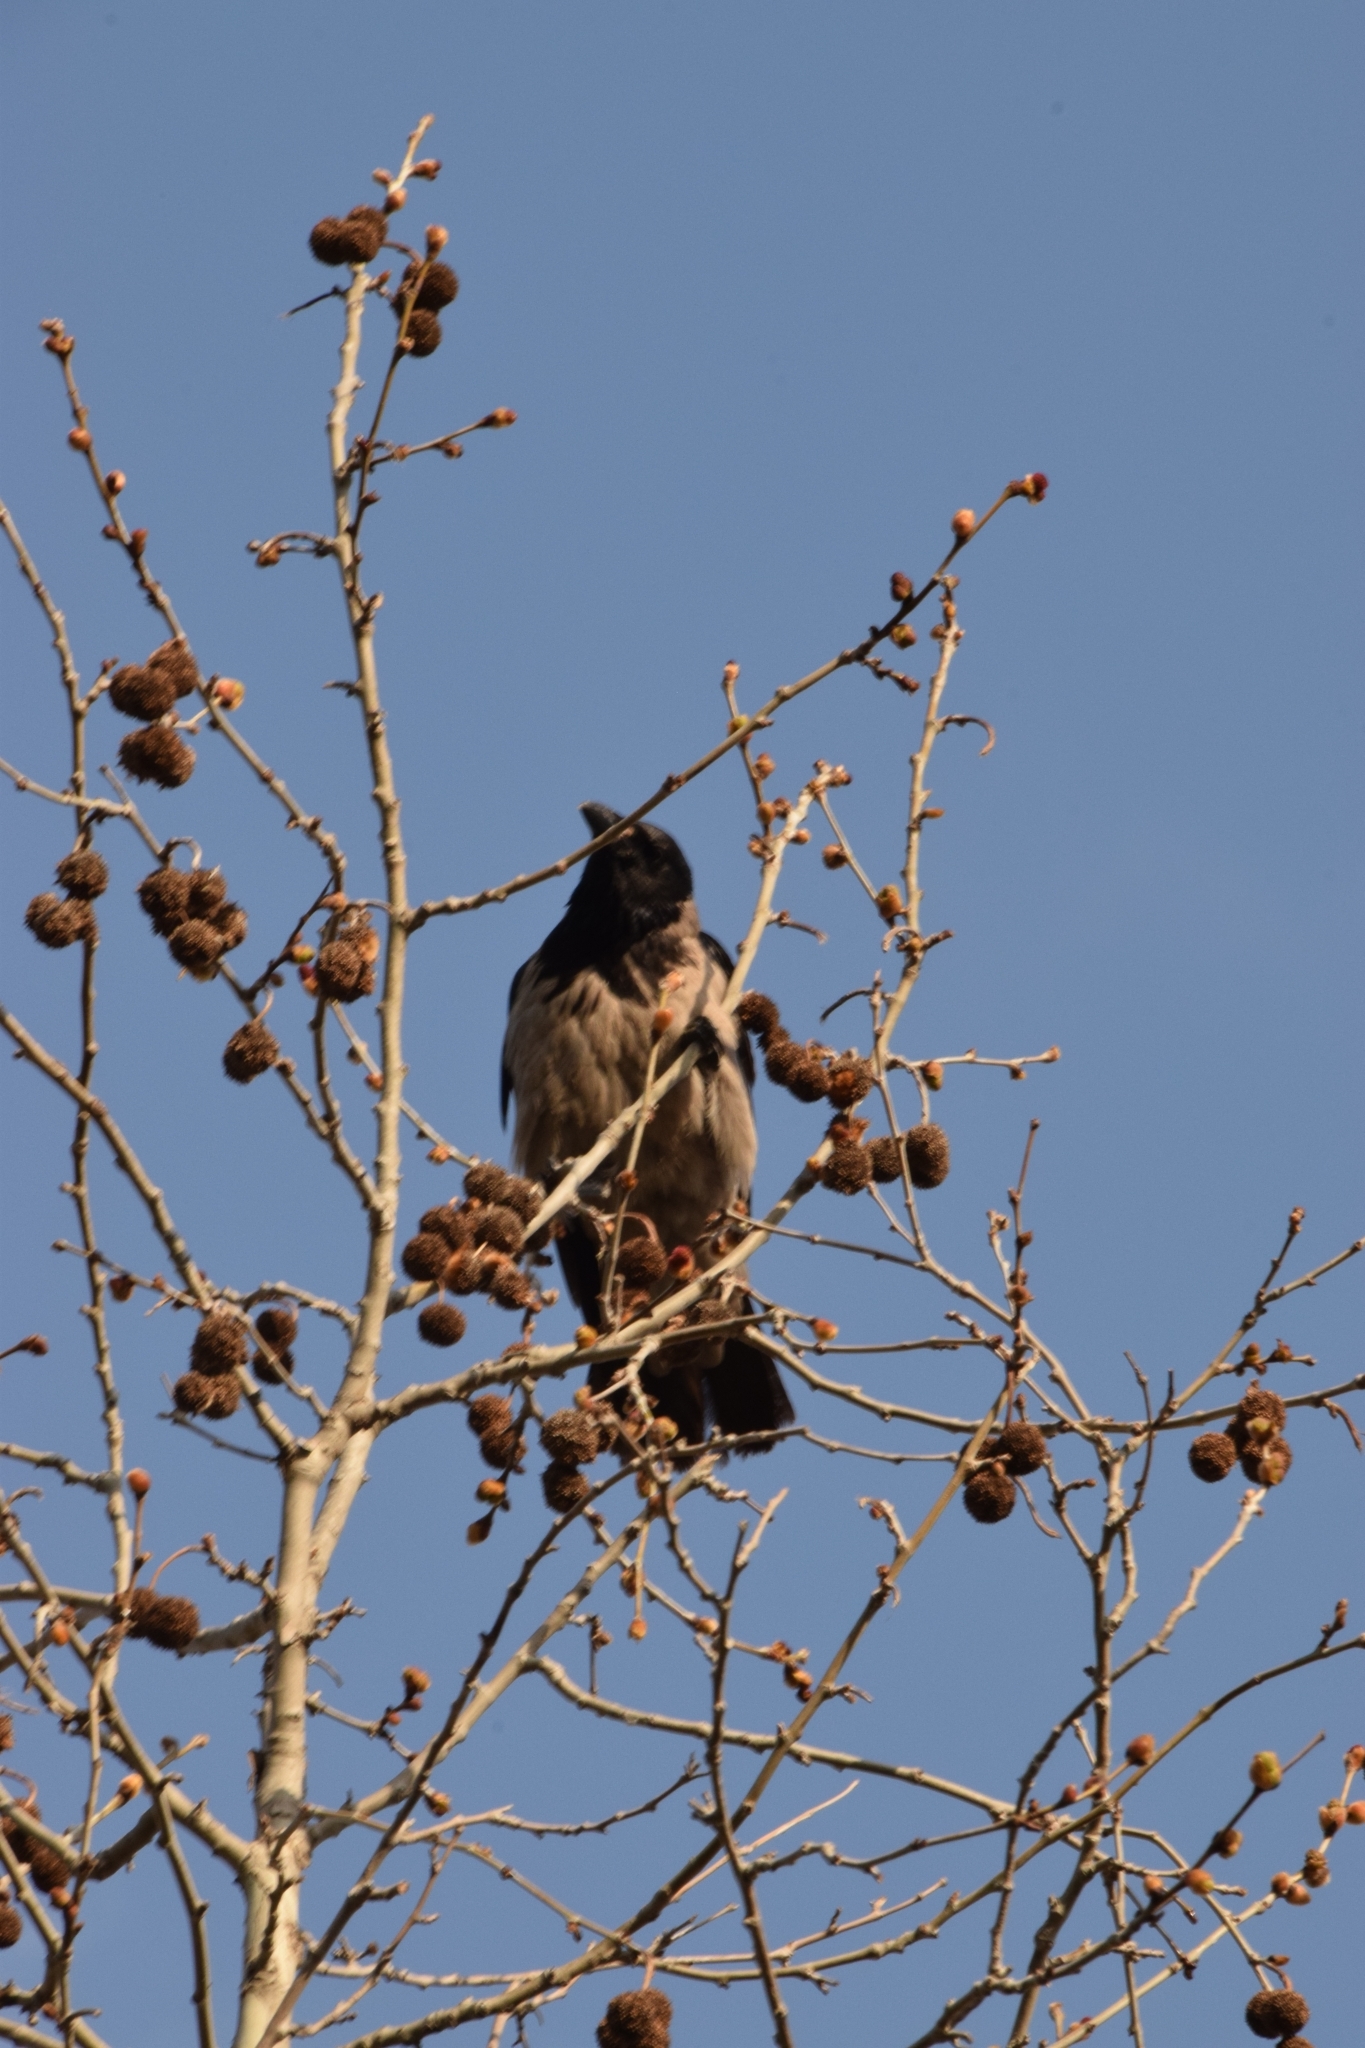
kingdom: Animalia
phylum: Chordata
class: Aves
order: Passeriformes
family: Corvidae
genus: Corvus
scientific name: Corvus cornix
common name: Hooded crow
